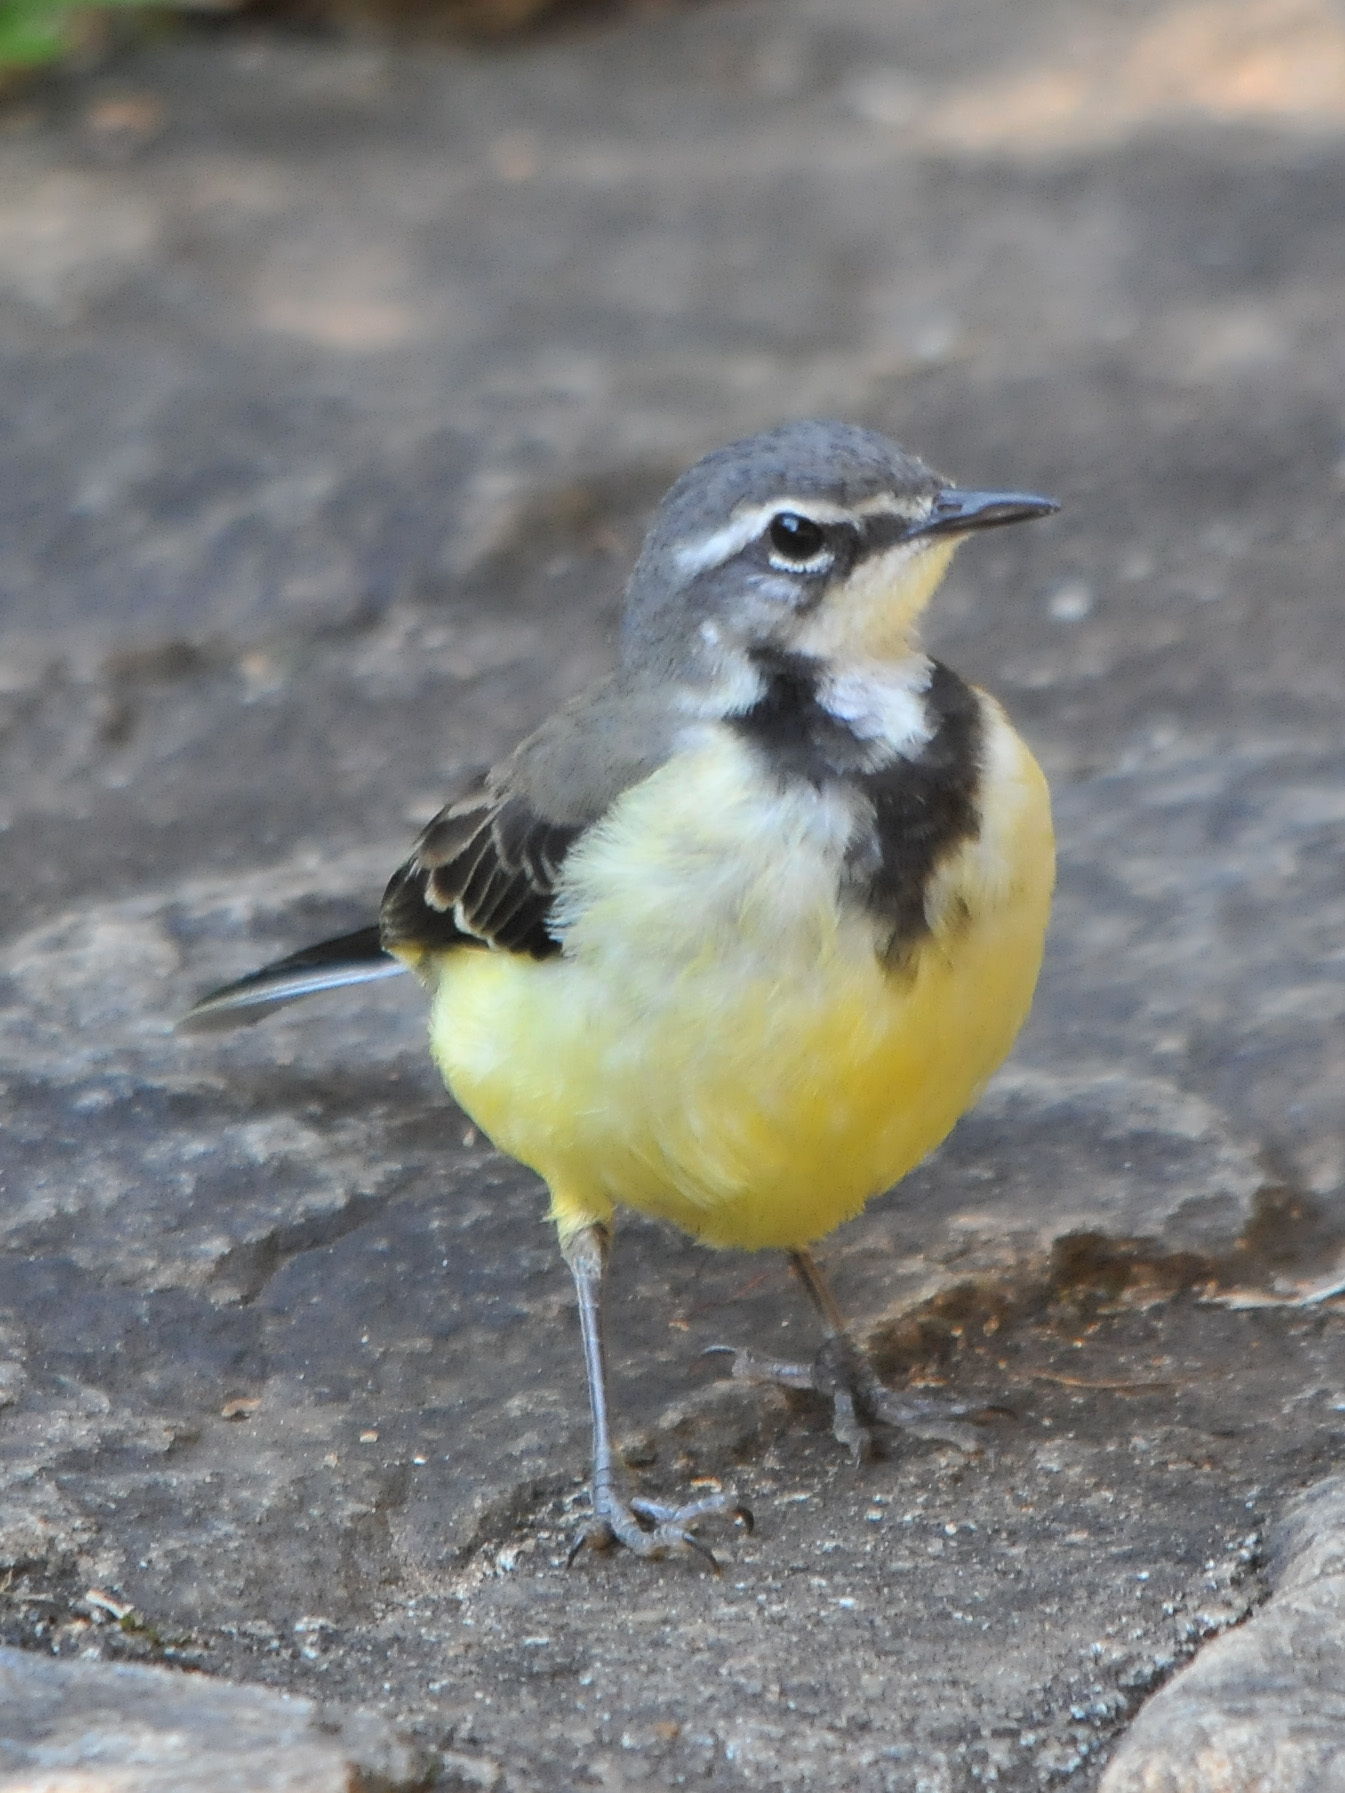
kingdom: Animalia
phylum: Chordata
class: Aves
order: Passeriformes
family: Motacillidae
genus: Motacilla
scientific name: Motacilla flaviventris
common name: Madagascar wagtail
